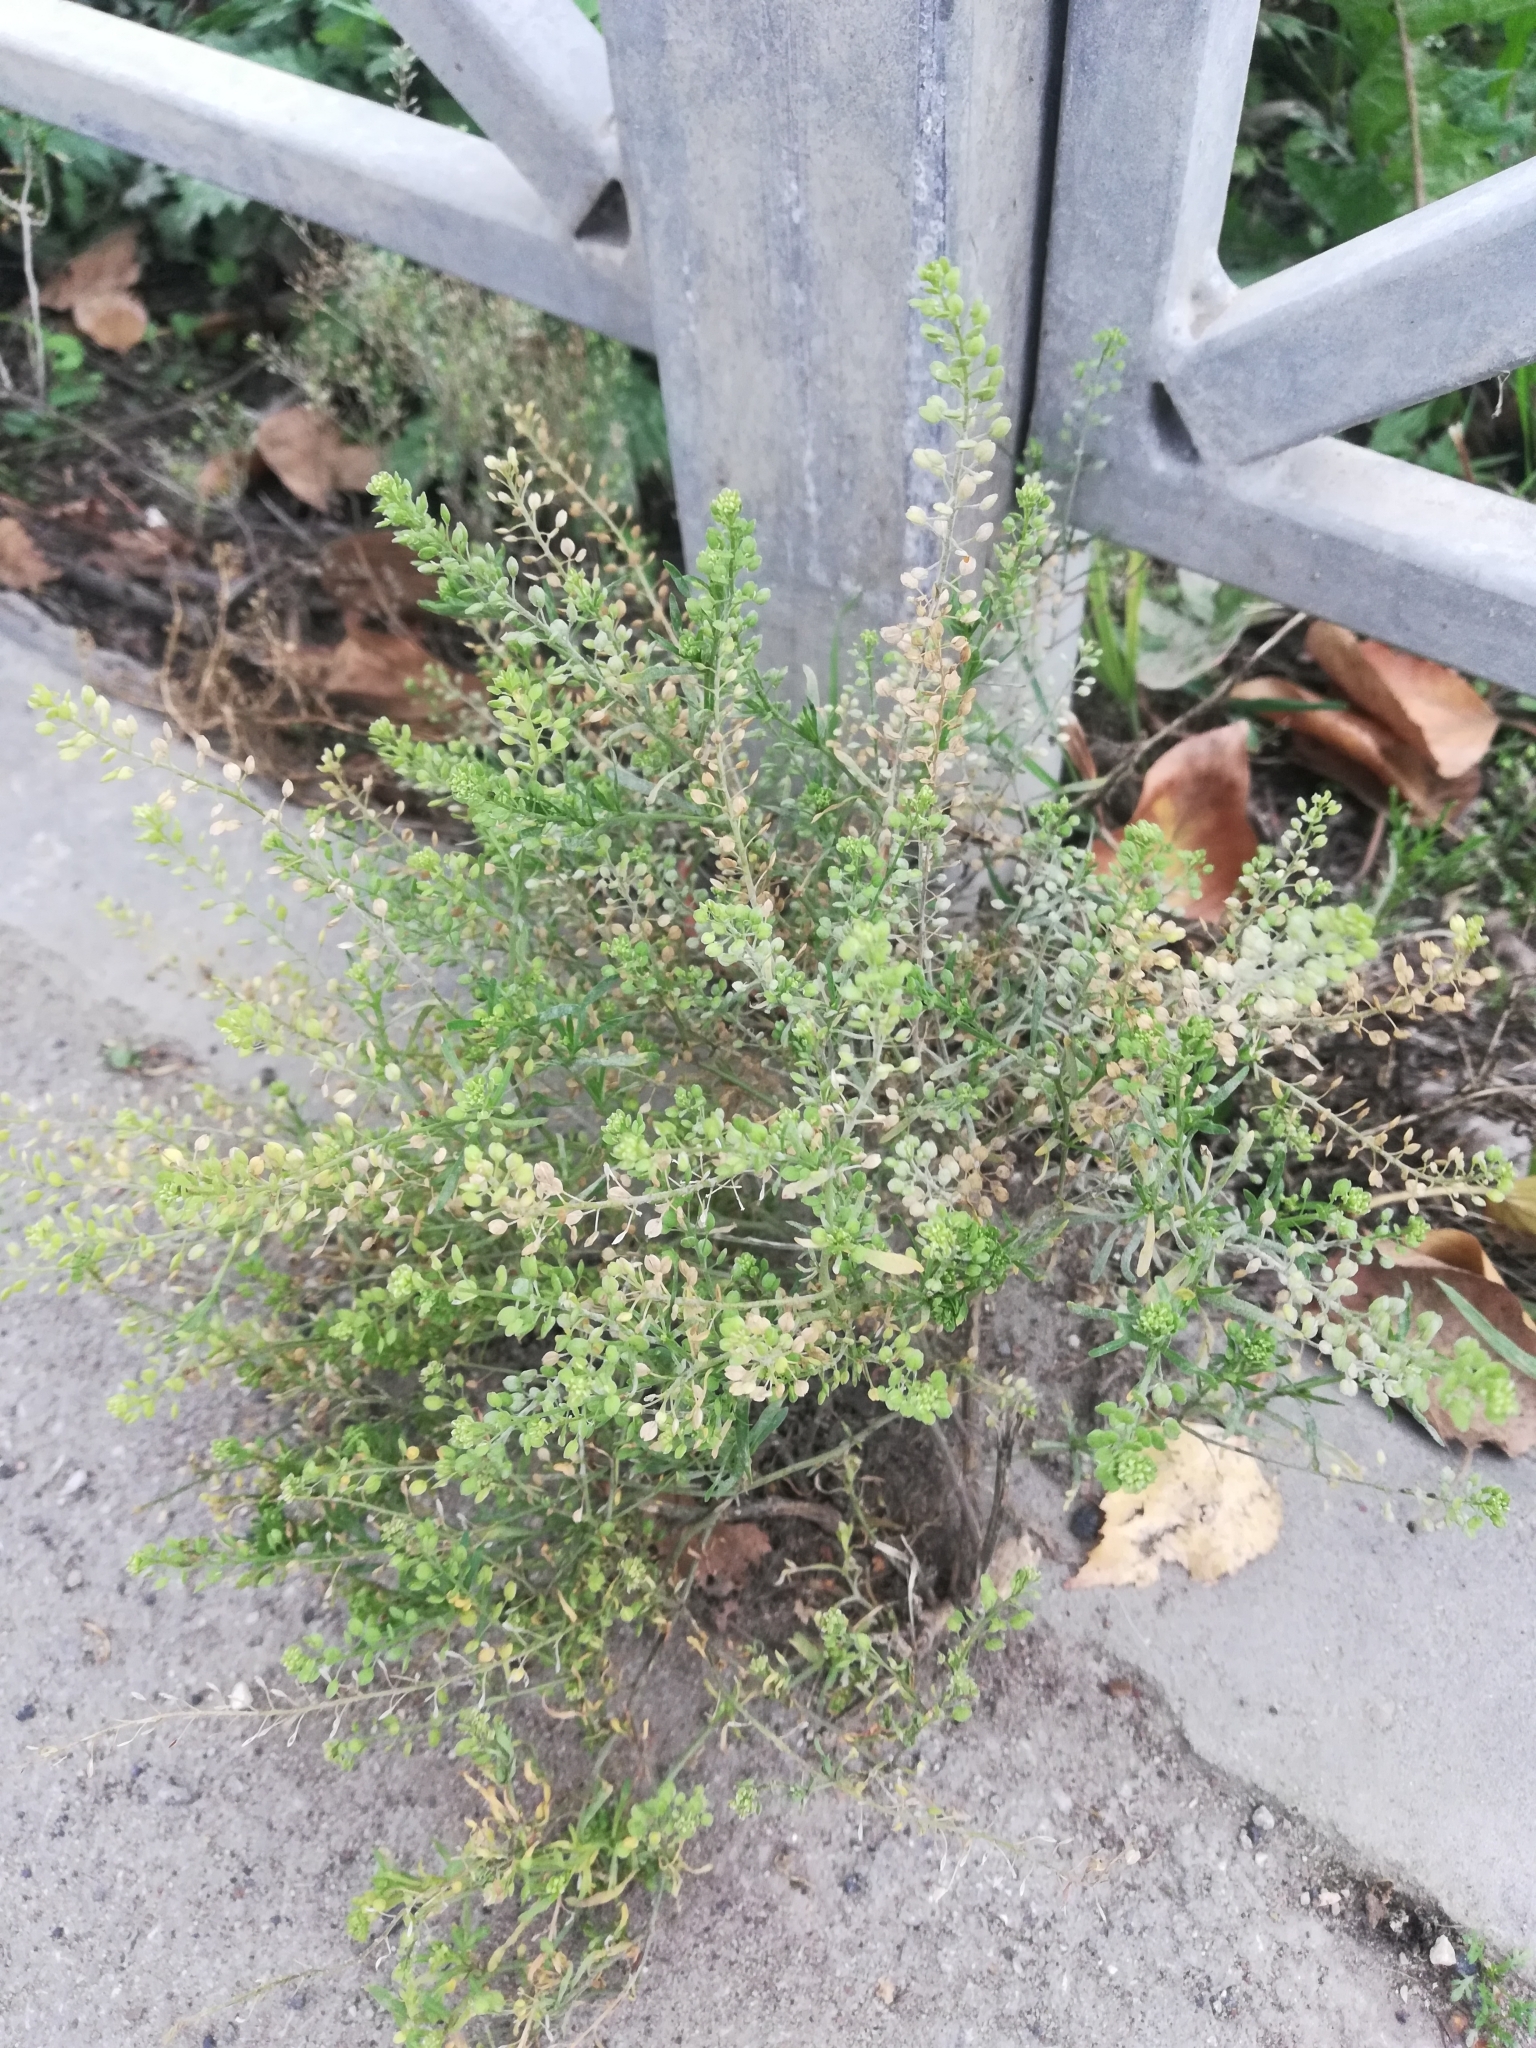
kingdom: Plantae
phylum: Tracheophyta
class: Magnoliopsida
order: Brassicales
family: Brassicaceae
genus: Lepidium
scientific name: Lepidium ruderale
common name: Narrow-leaved pepperwort
